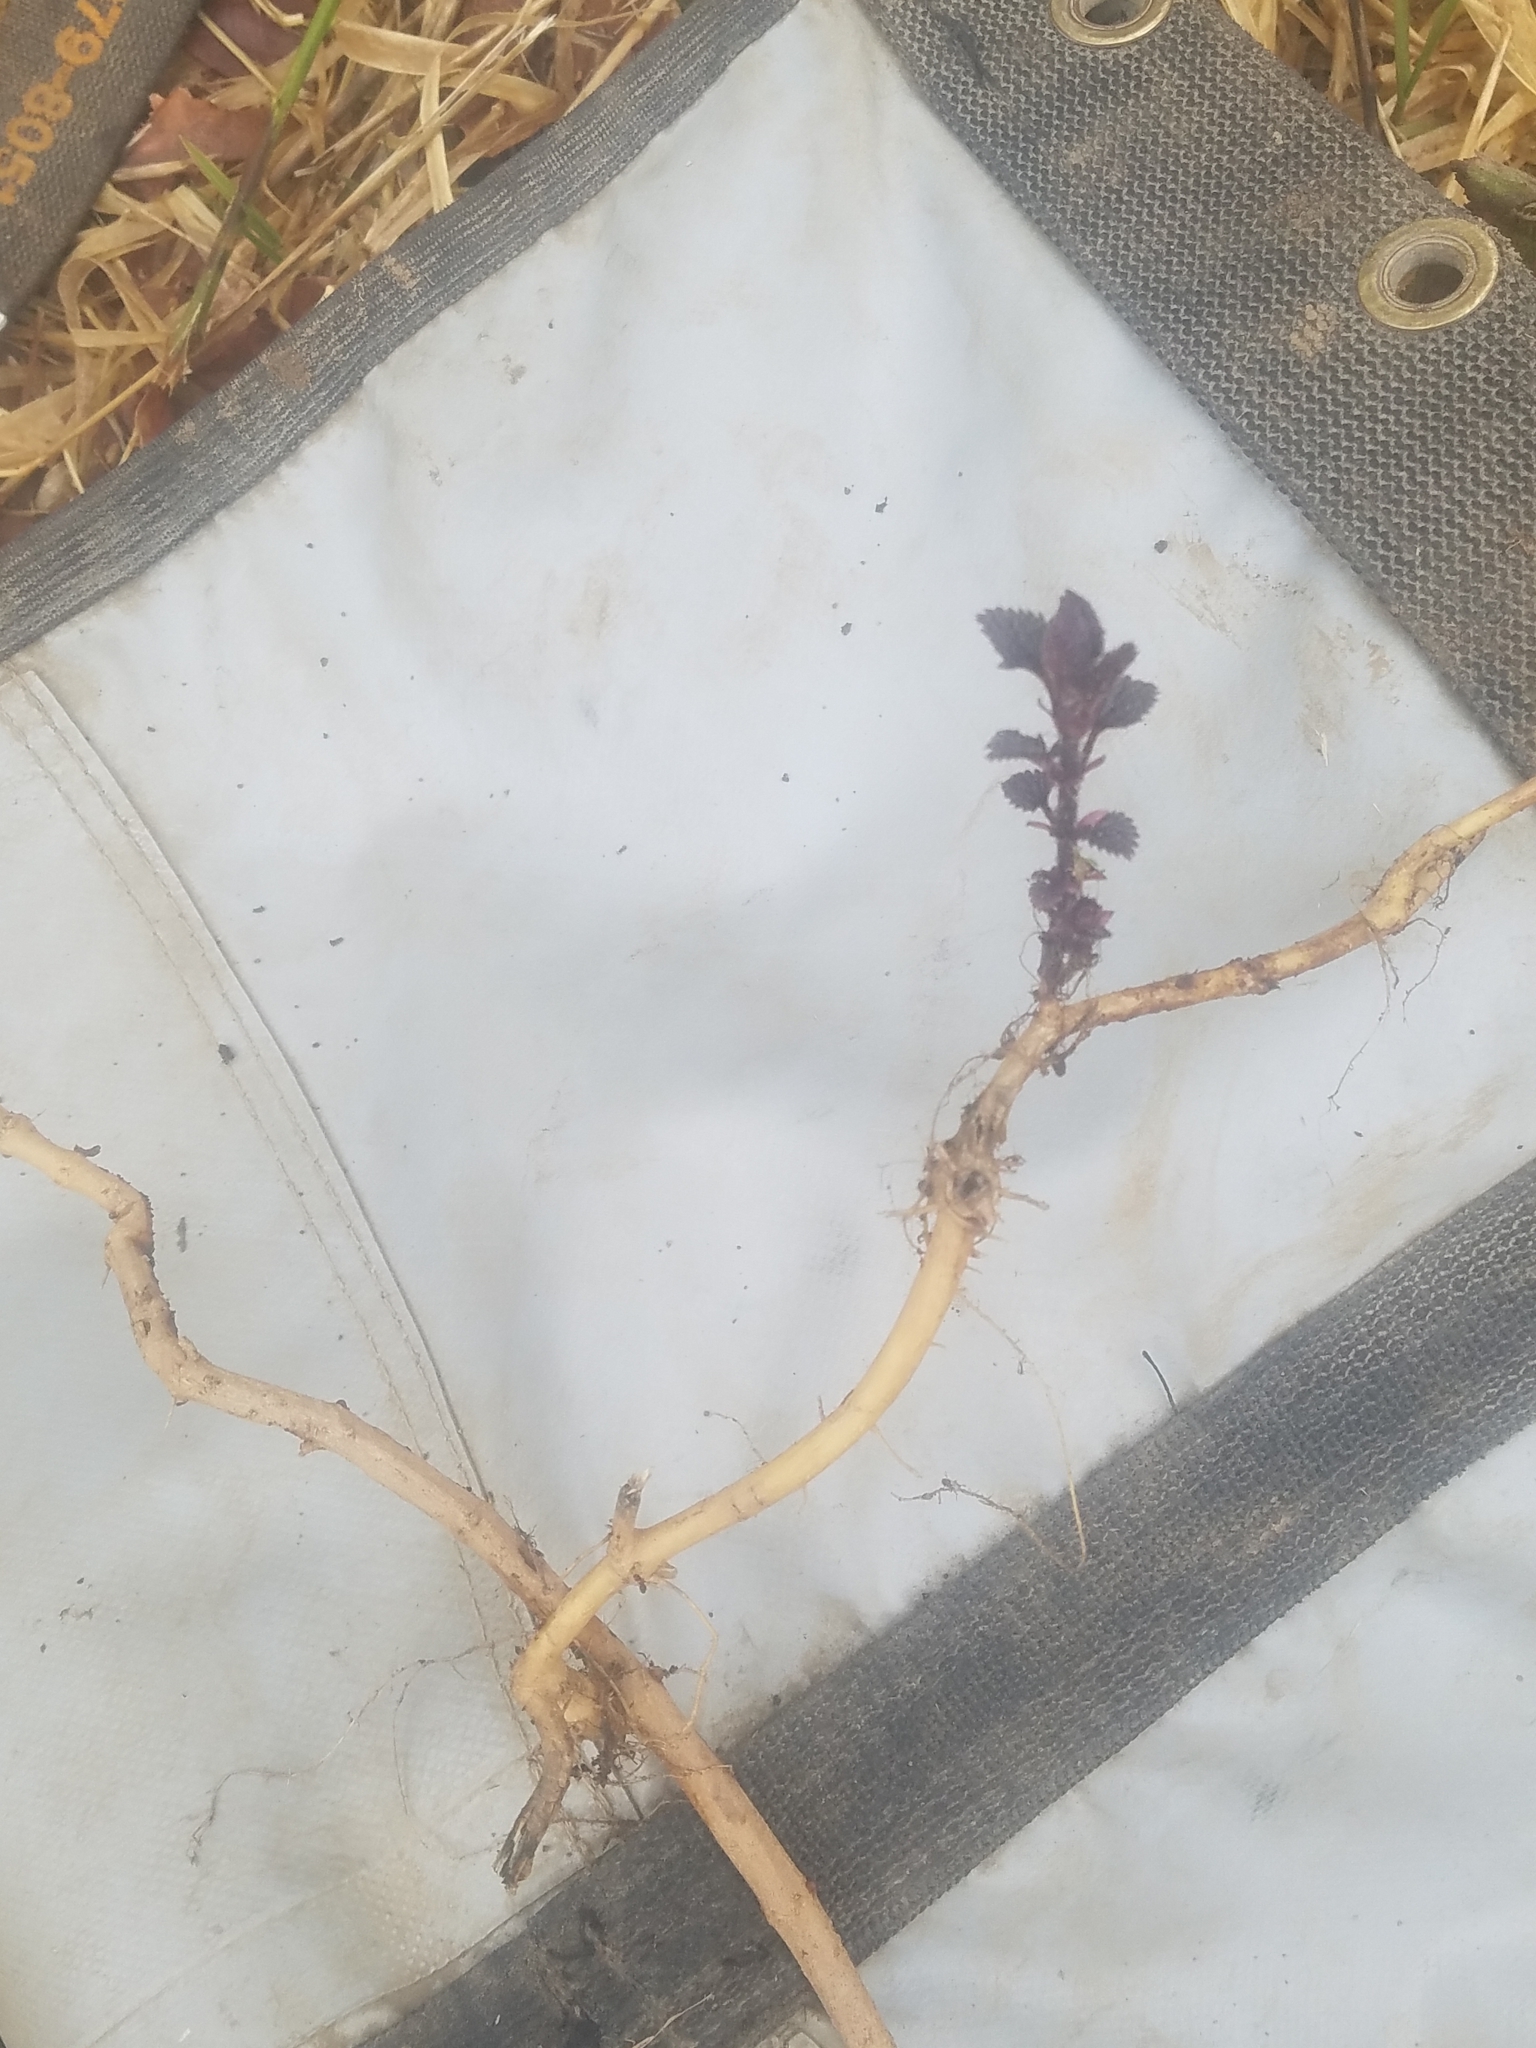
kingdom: Plantae
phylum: Tracheophyta
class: Magnoliopsida
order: Rosales
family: Urticaceae
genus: Urtica
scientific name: Urtica gracilis
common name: Slender stinging nettle
